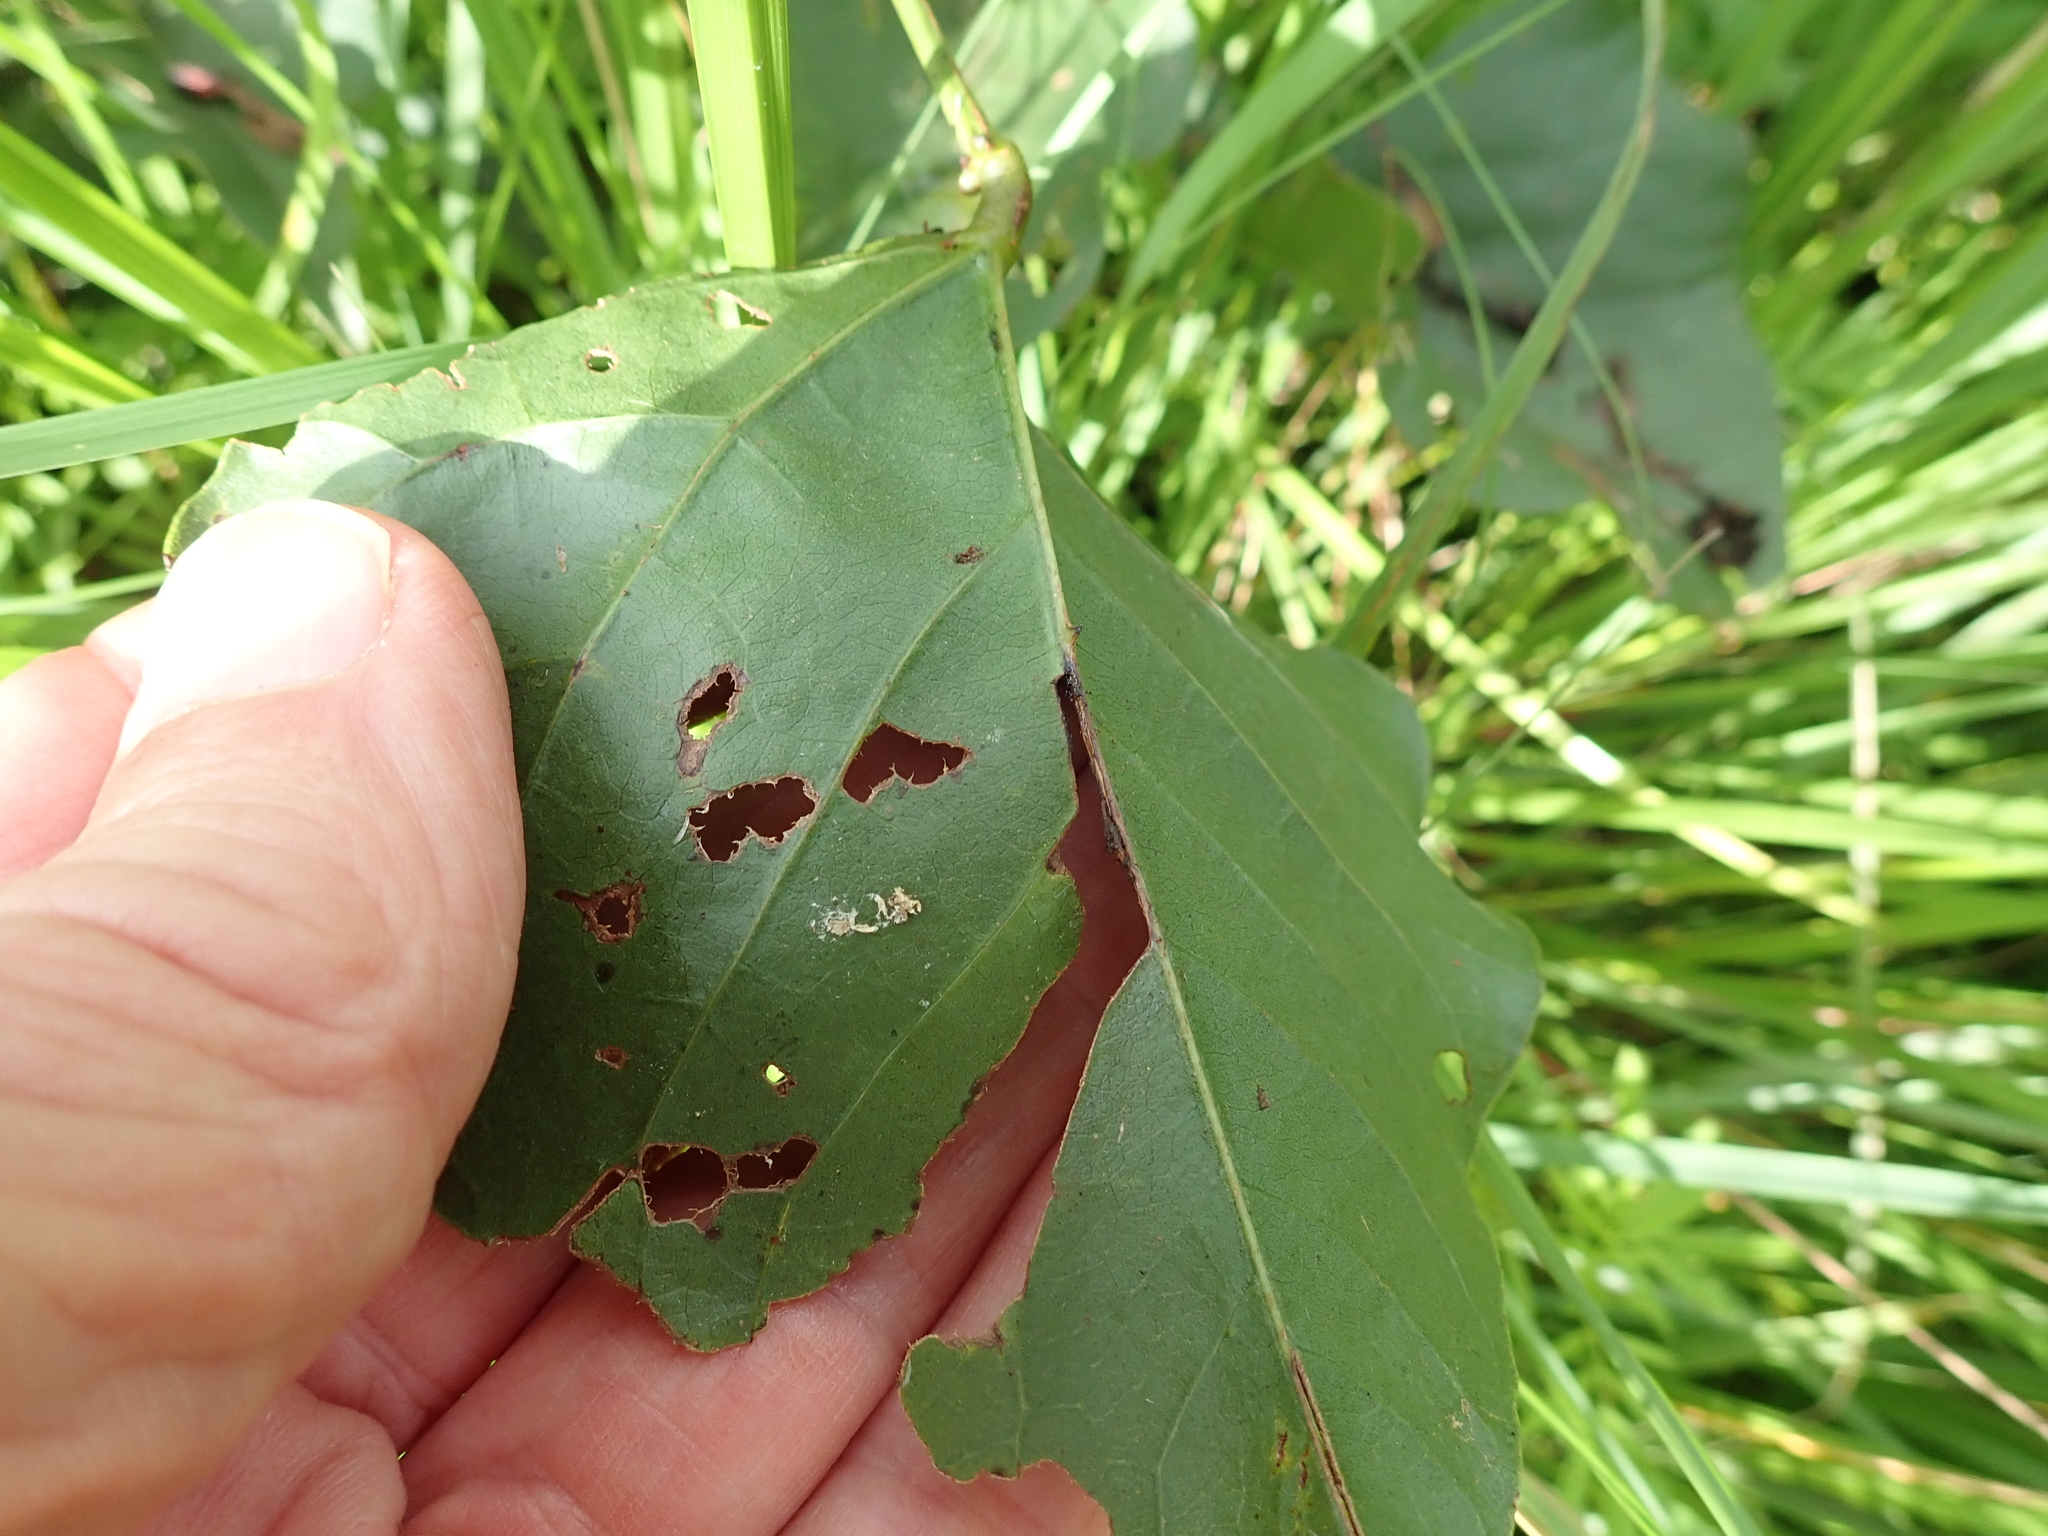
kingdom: Plantae
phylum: Tracheophyta
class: Magnoliopsida
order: Fabales
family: Fabaceae
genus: Erythrina
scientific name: Erythrina humeana
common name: Dwarf coral tree
